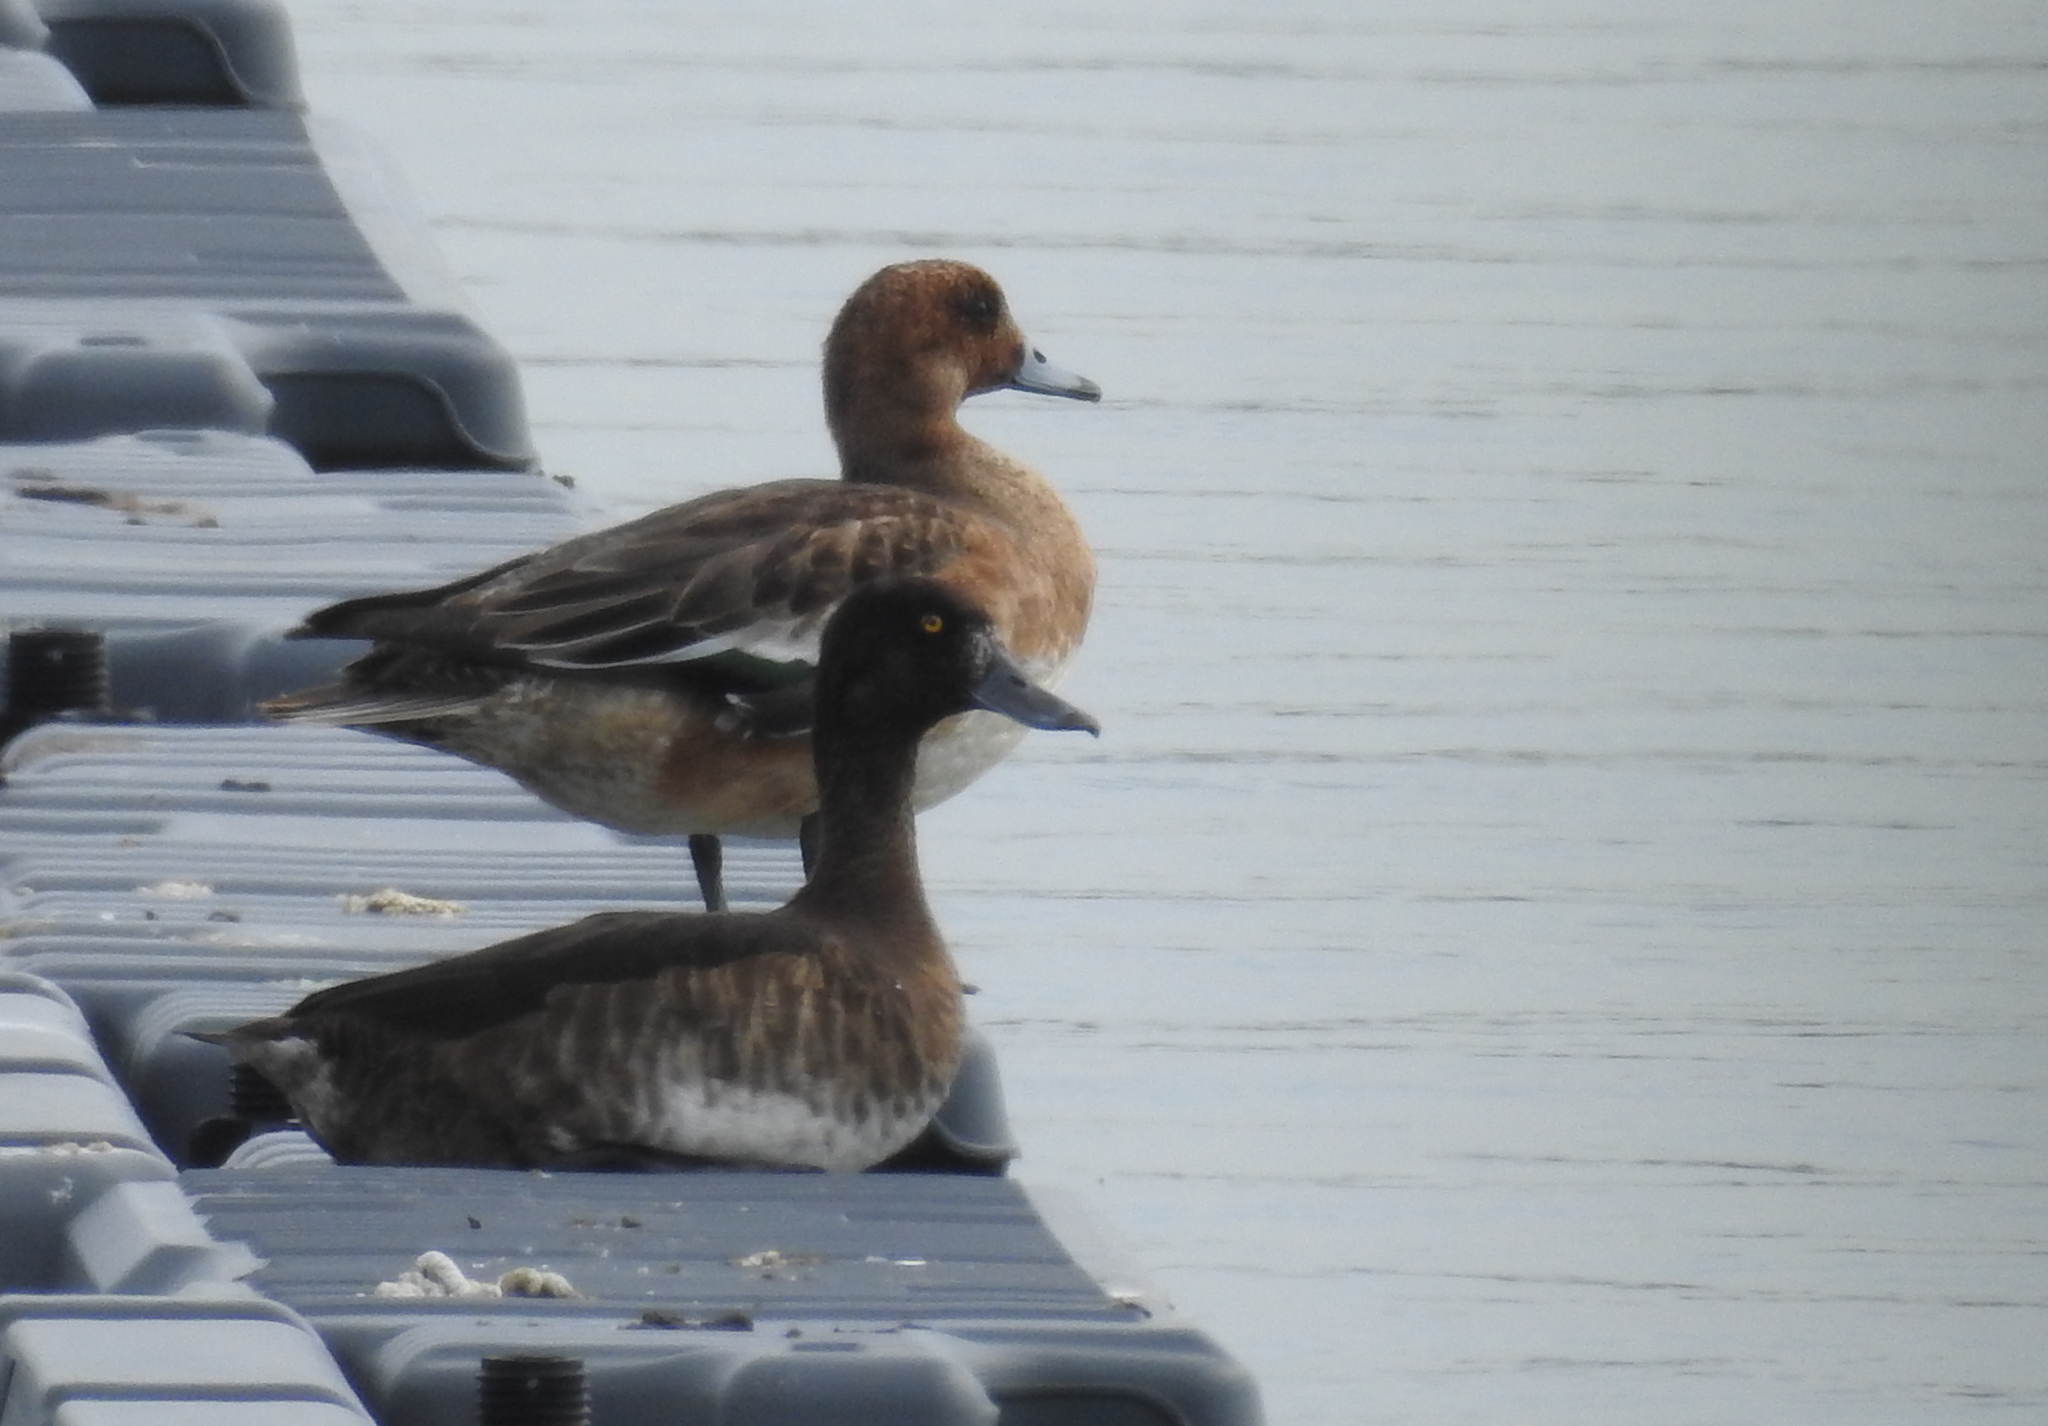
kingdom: Animalia
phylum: Chordata
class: Aves
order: Anseriformes
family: Anatidae
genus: Aythya
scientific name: Aythya fuligula
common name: Tufted duck
